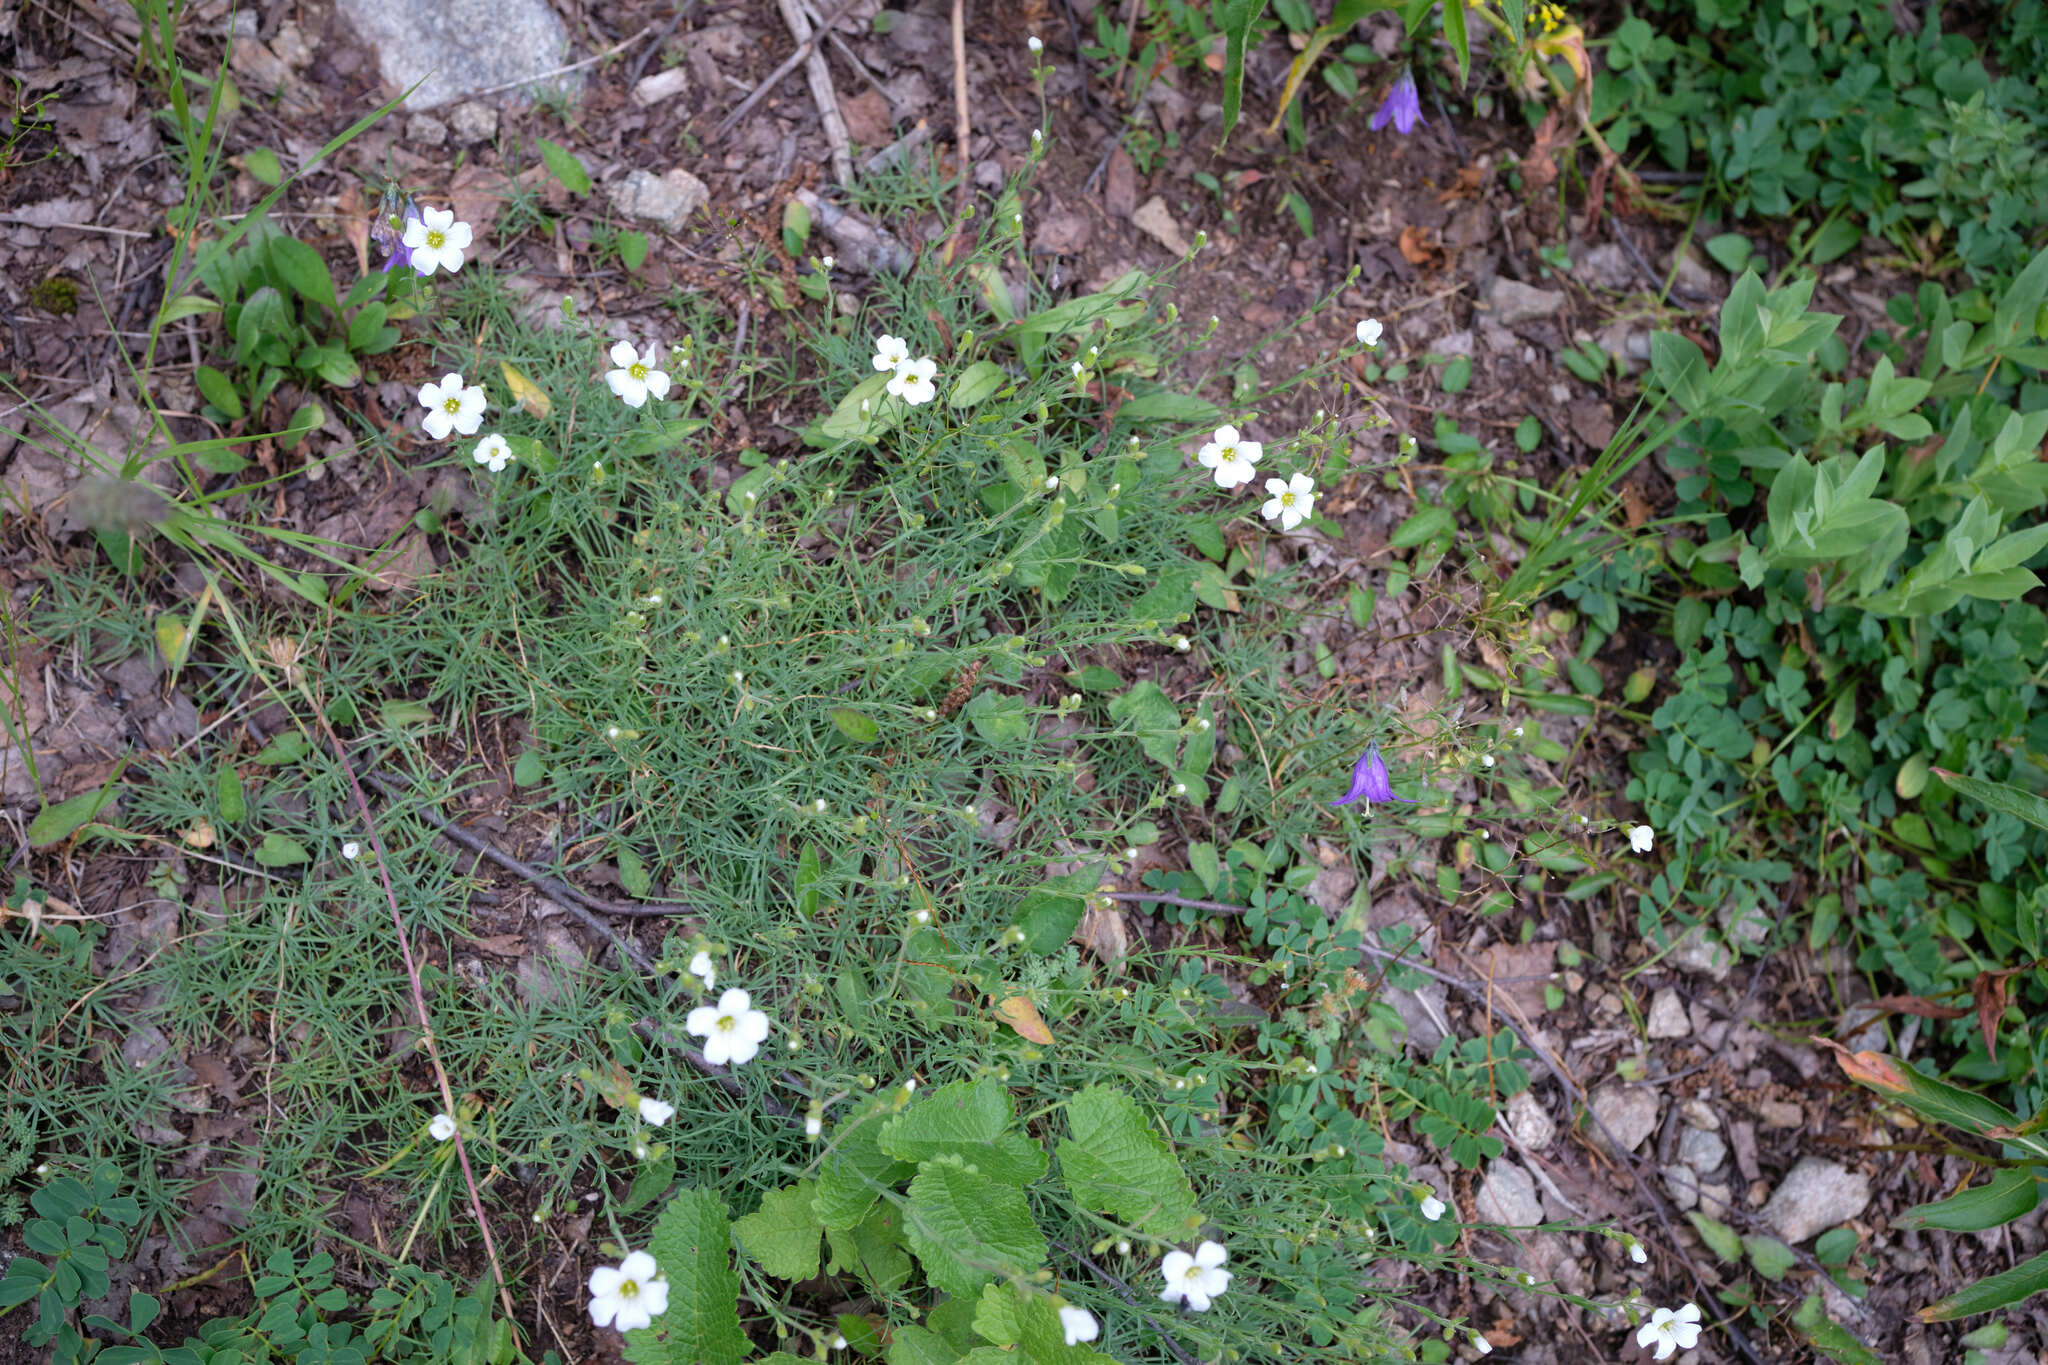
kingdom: Plantae
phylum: Tracheophyta
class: Magnoliopsida
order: Caryophyllales
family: Caryophyllaceae
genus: Cherleria
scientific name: Cherleria circassica
